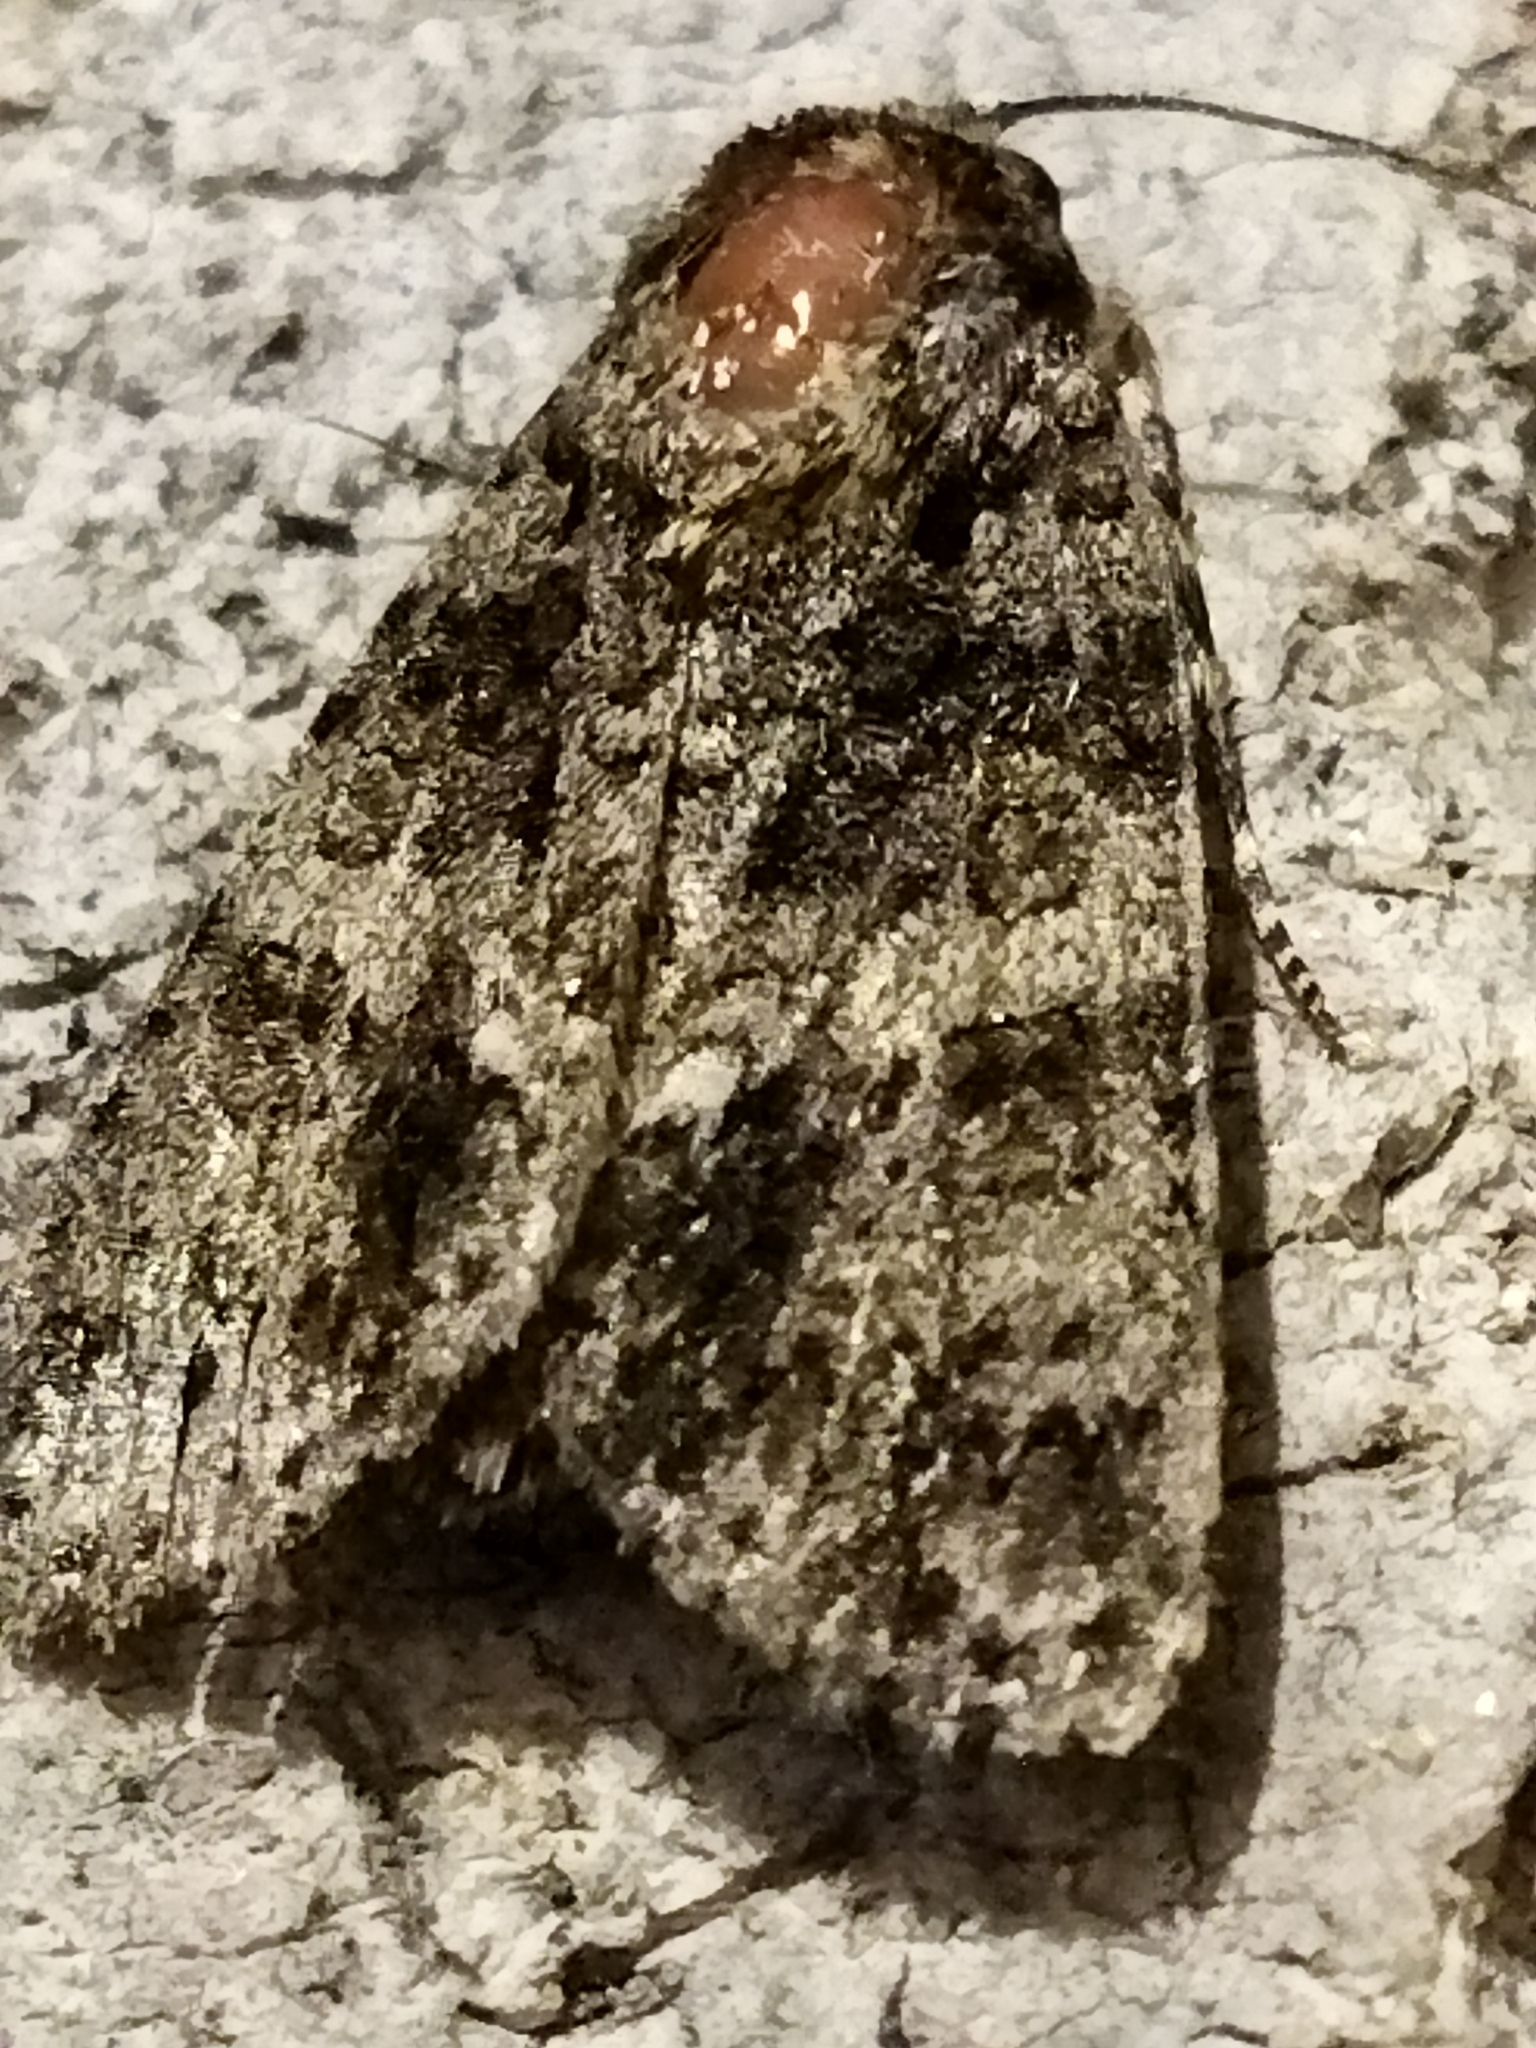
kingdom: Animalia
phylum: Arthropoda
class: Insecta
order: Lepidoptera
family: Noctuidae
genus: Acronicta
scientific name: Acronicta rumicis
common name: Knot grass
